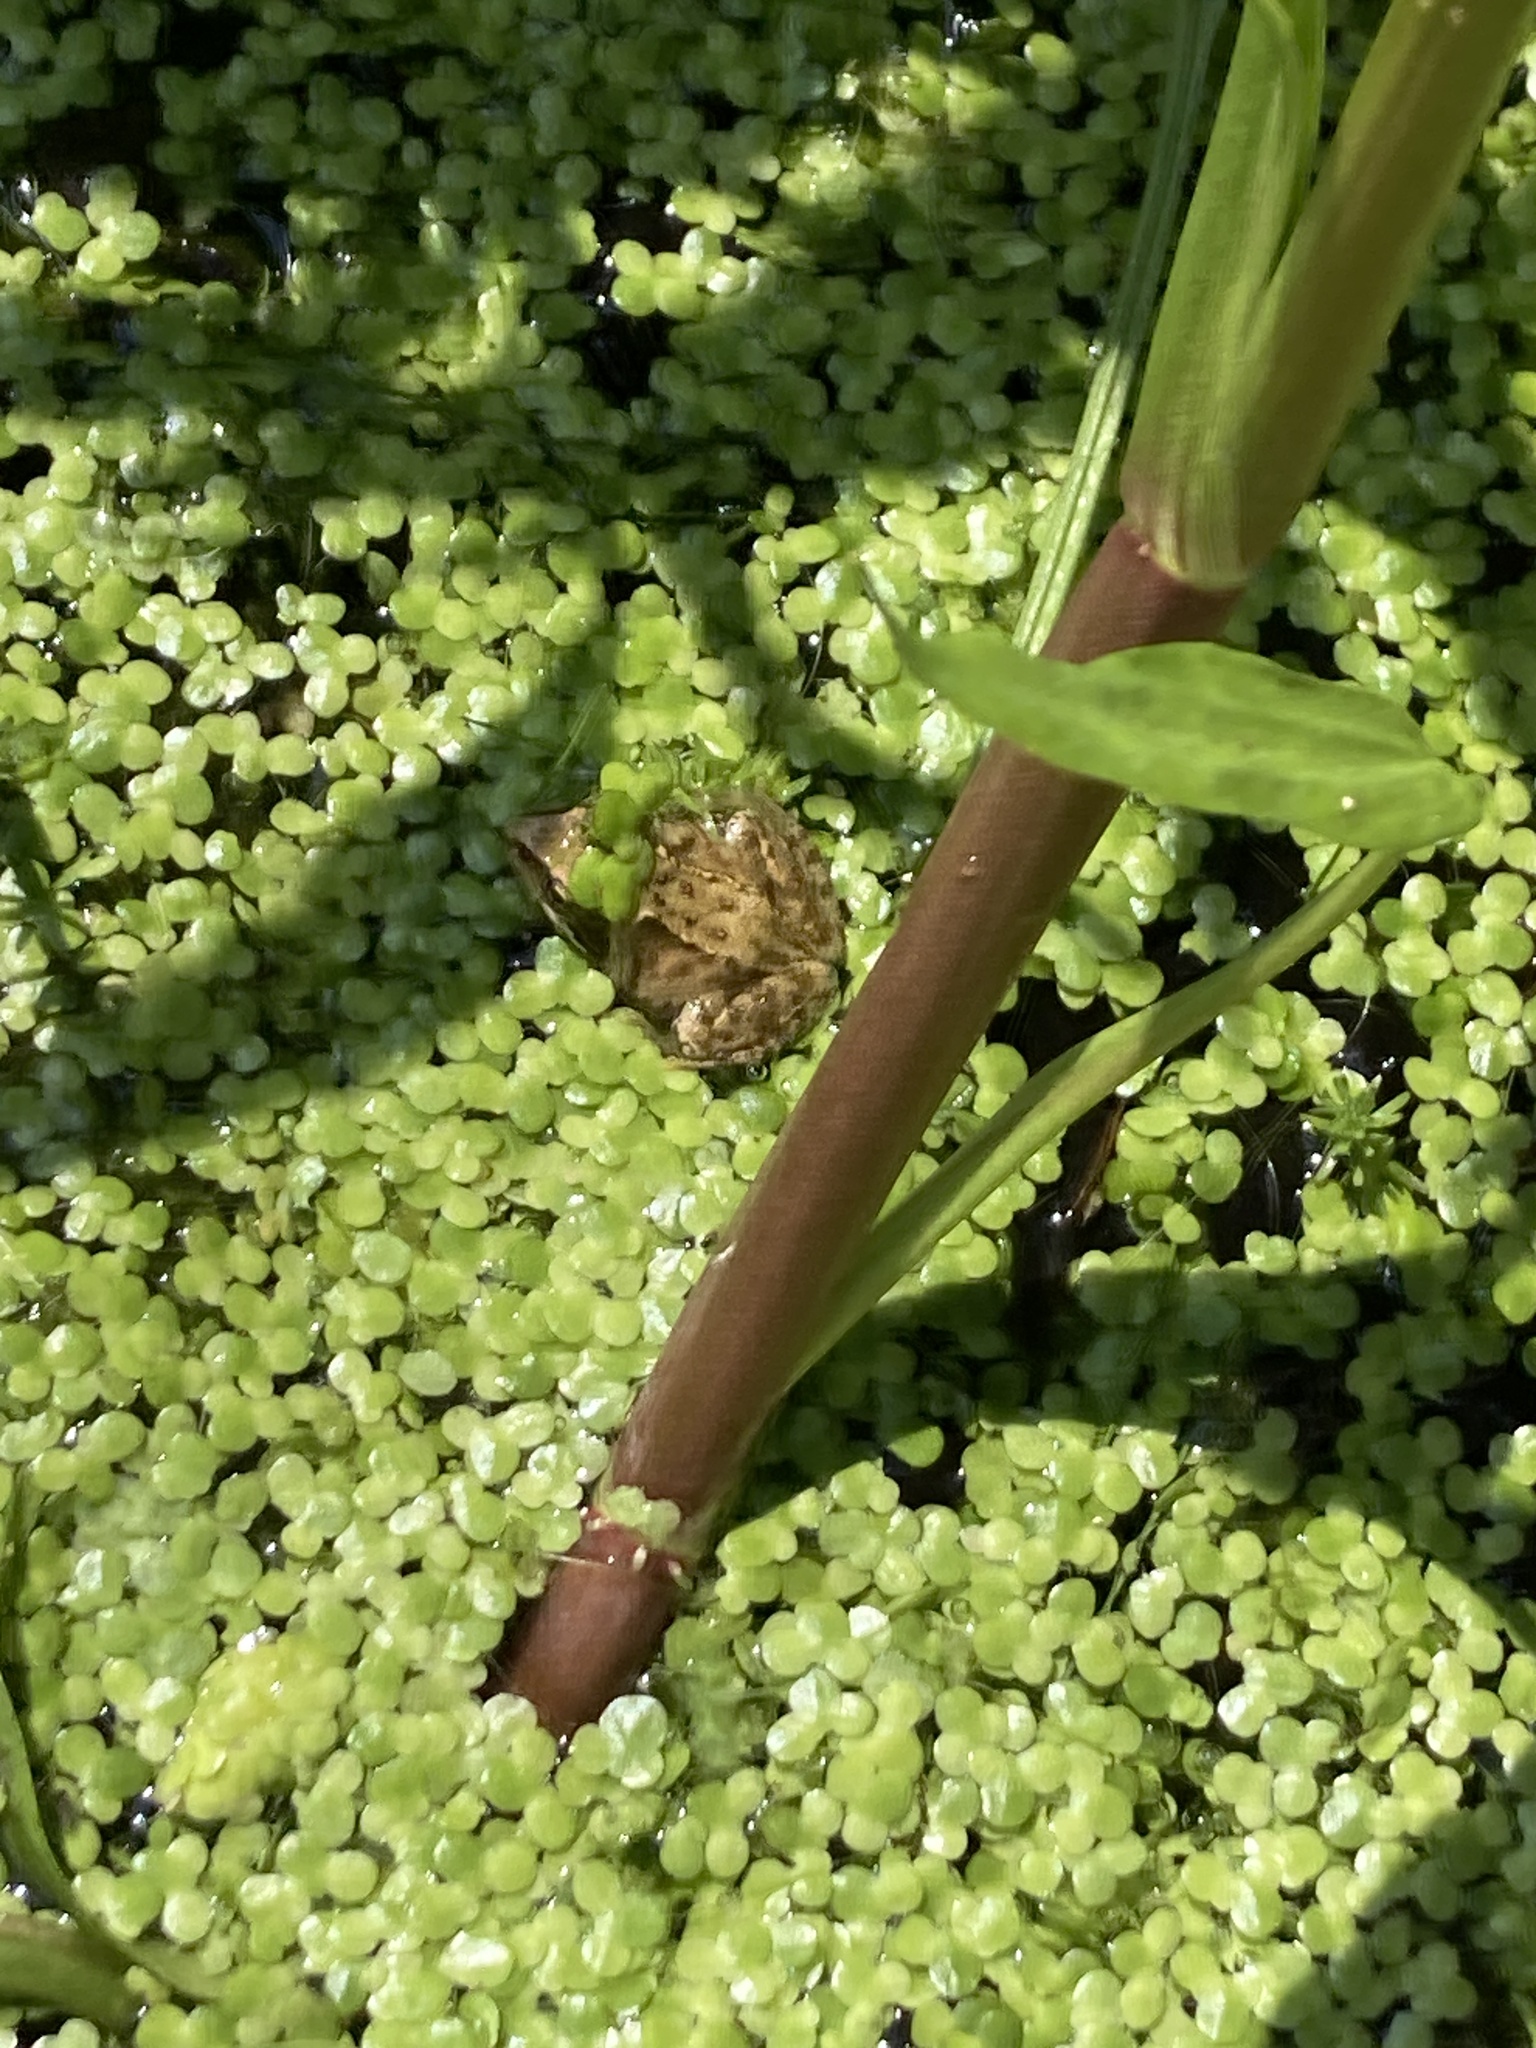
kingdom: Animalia
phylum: Chordata
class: Amphibia
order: Anura
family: Ranidae
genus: Rana
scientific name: Rana temporaria
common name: Common frog
